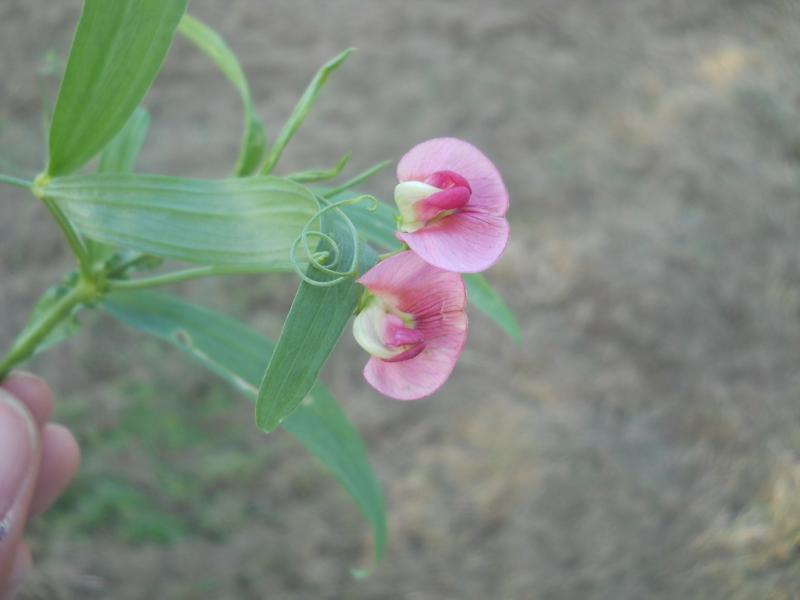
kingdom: Plantae
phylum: Tracheophyta
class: Magnoliopsida
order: Fabales
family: Fabaceae
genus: Lathyrus
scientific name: Lathyrus sylvestris
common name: Flat pea
